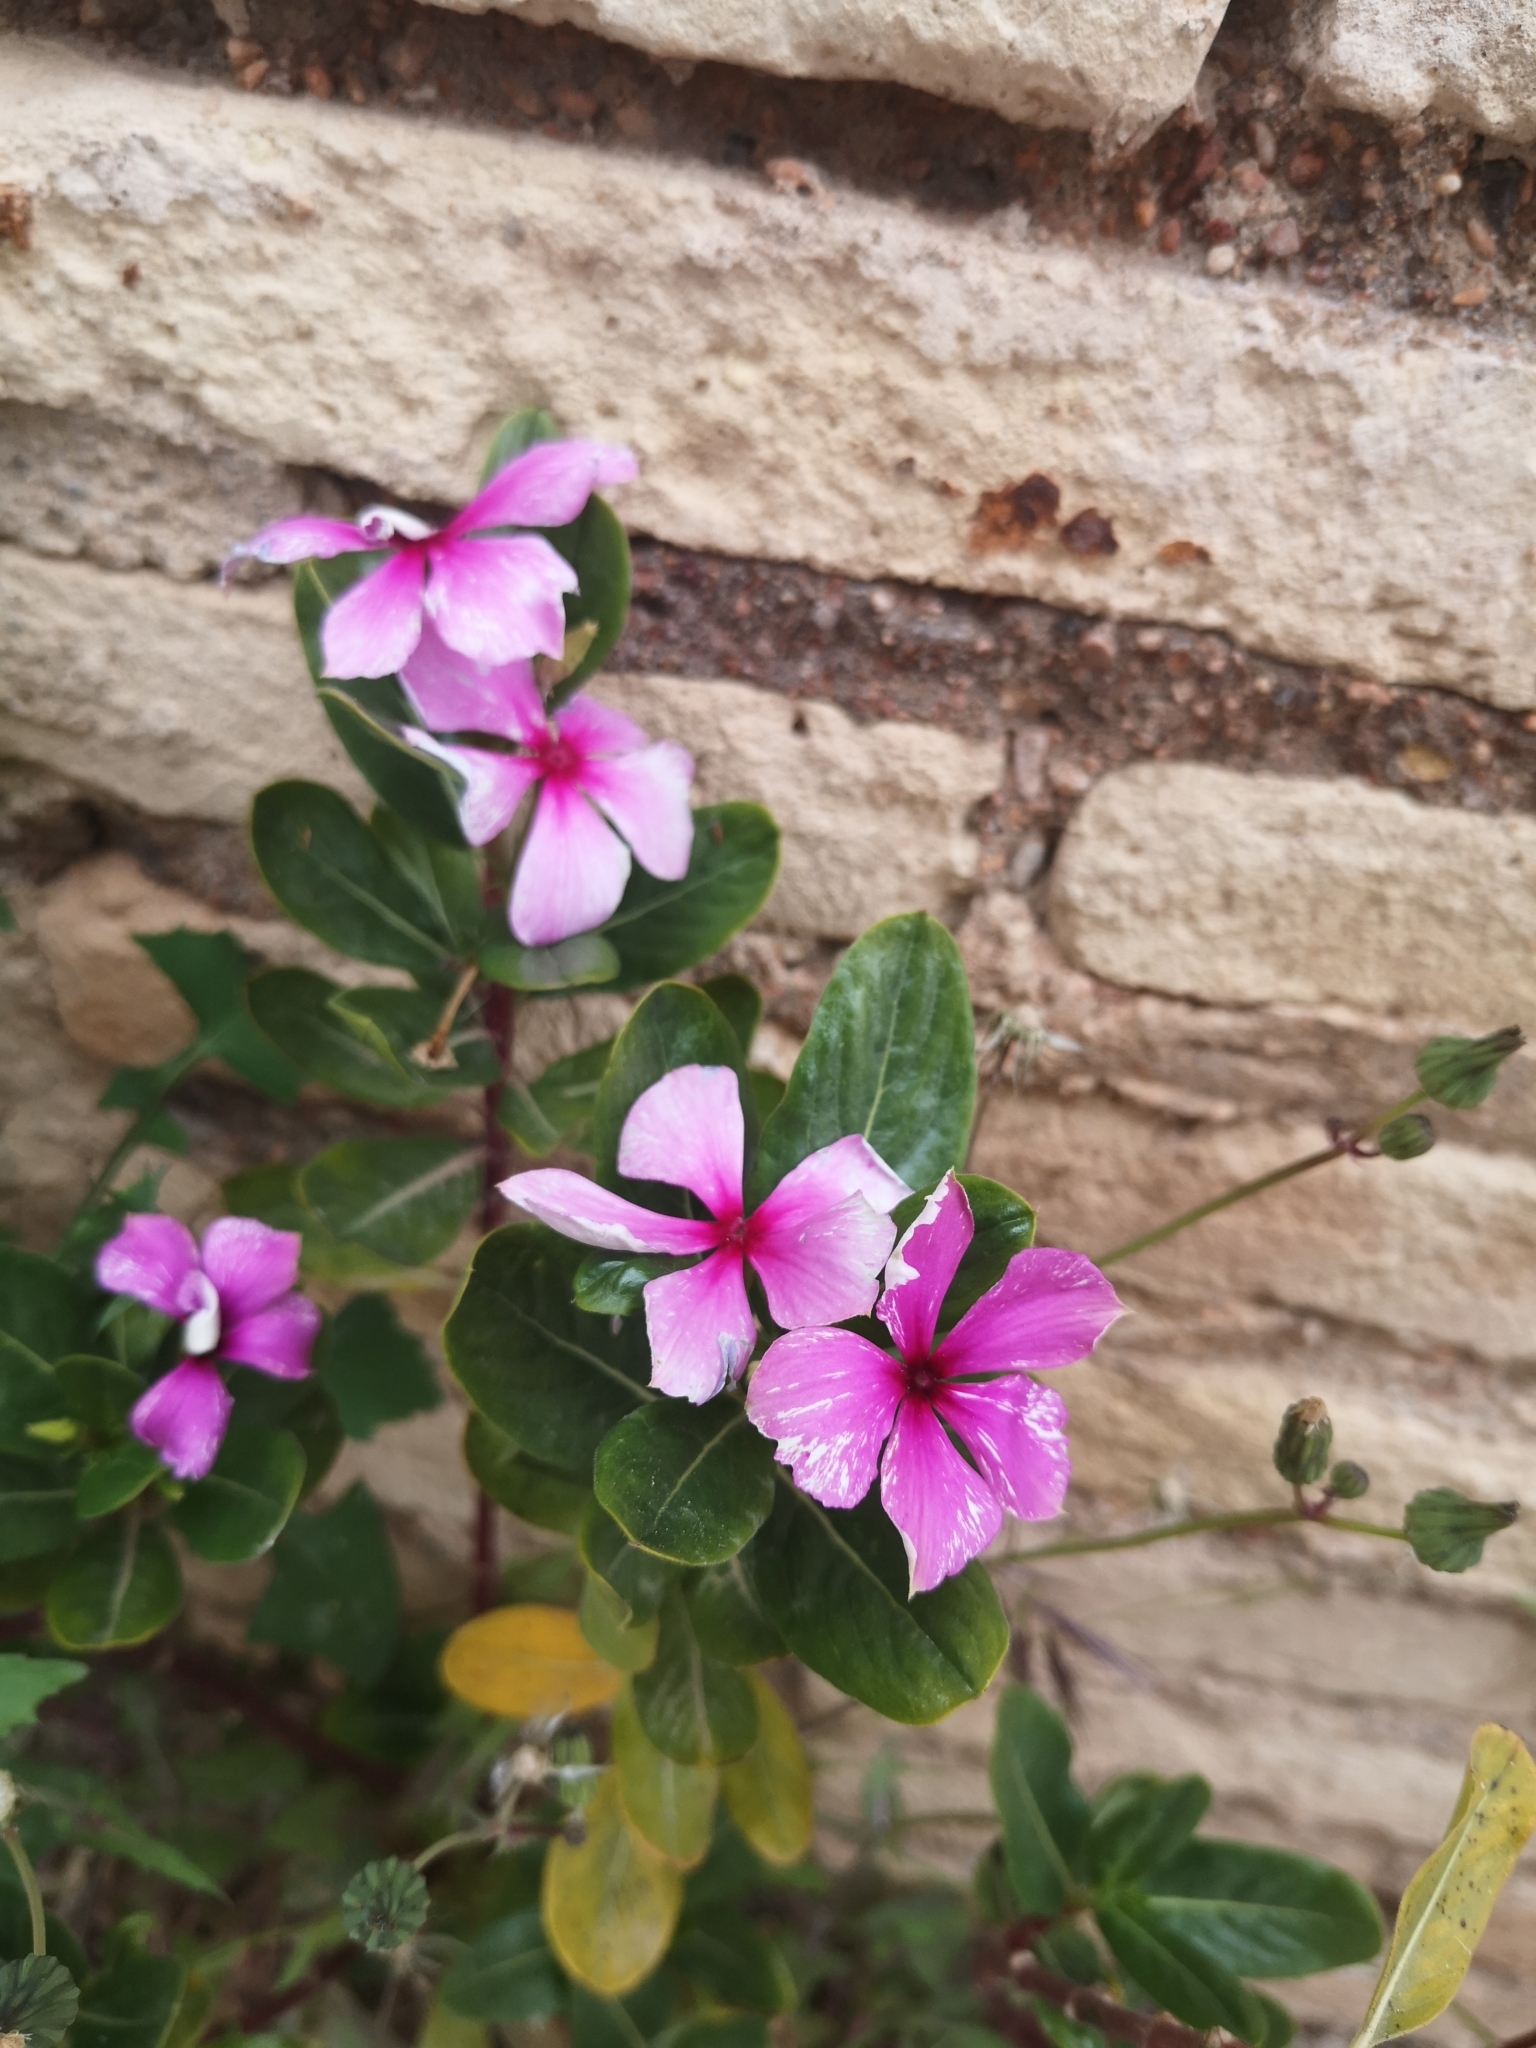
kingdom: Plantae
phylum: Tracheophyta
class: Magnoliopsida
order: Gentianales
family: Apocynaceae
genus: Catharanthus
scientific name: Catharanthus roseus
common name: Madagascar periwinkle
